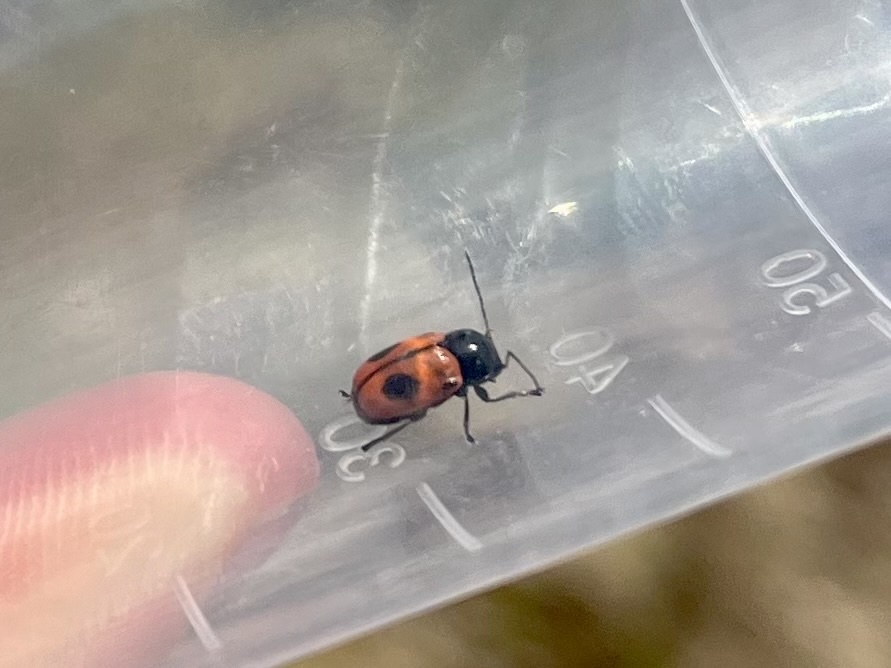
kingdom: Animalia
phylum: Arthropoda
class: Insecta
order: Coleoptera
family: Chrysomelidae
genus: Chiridopsis
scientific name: Chiridopsis bipunctata
